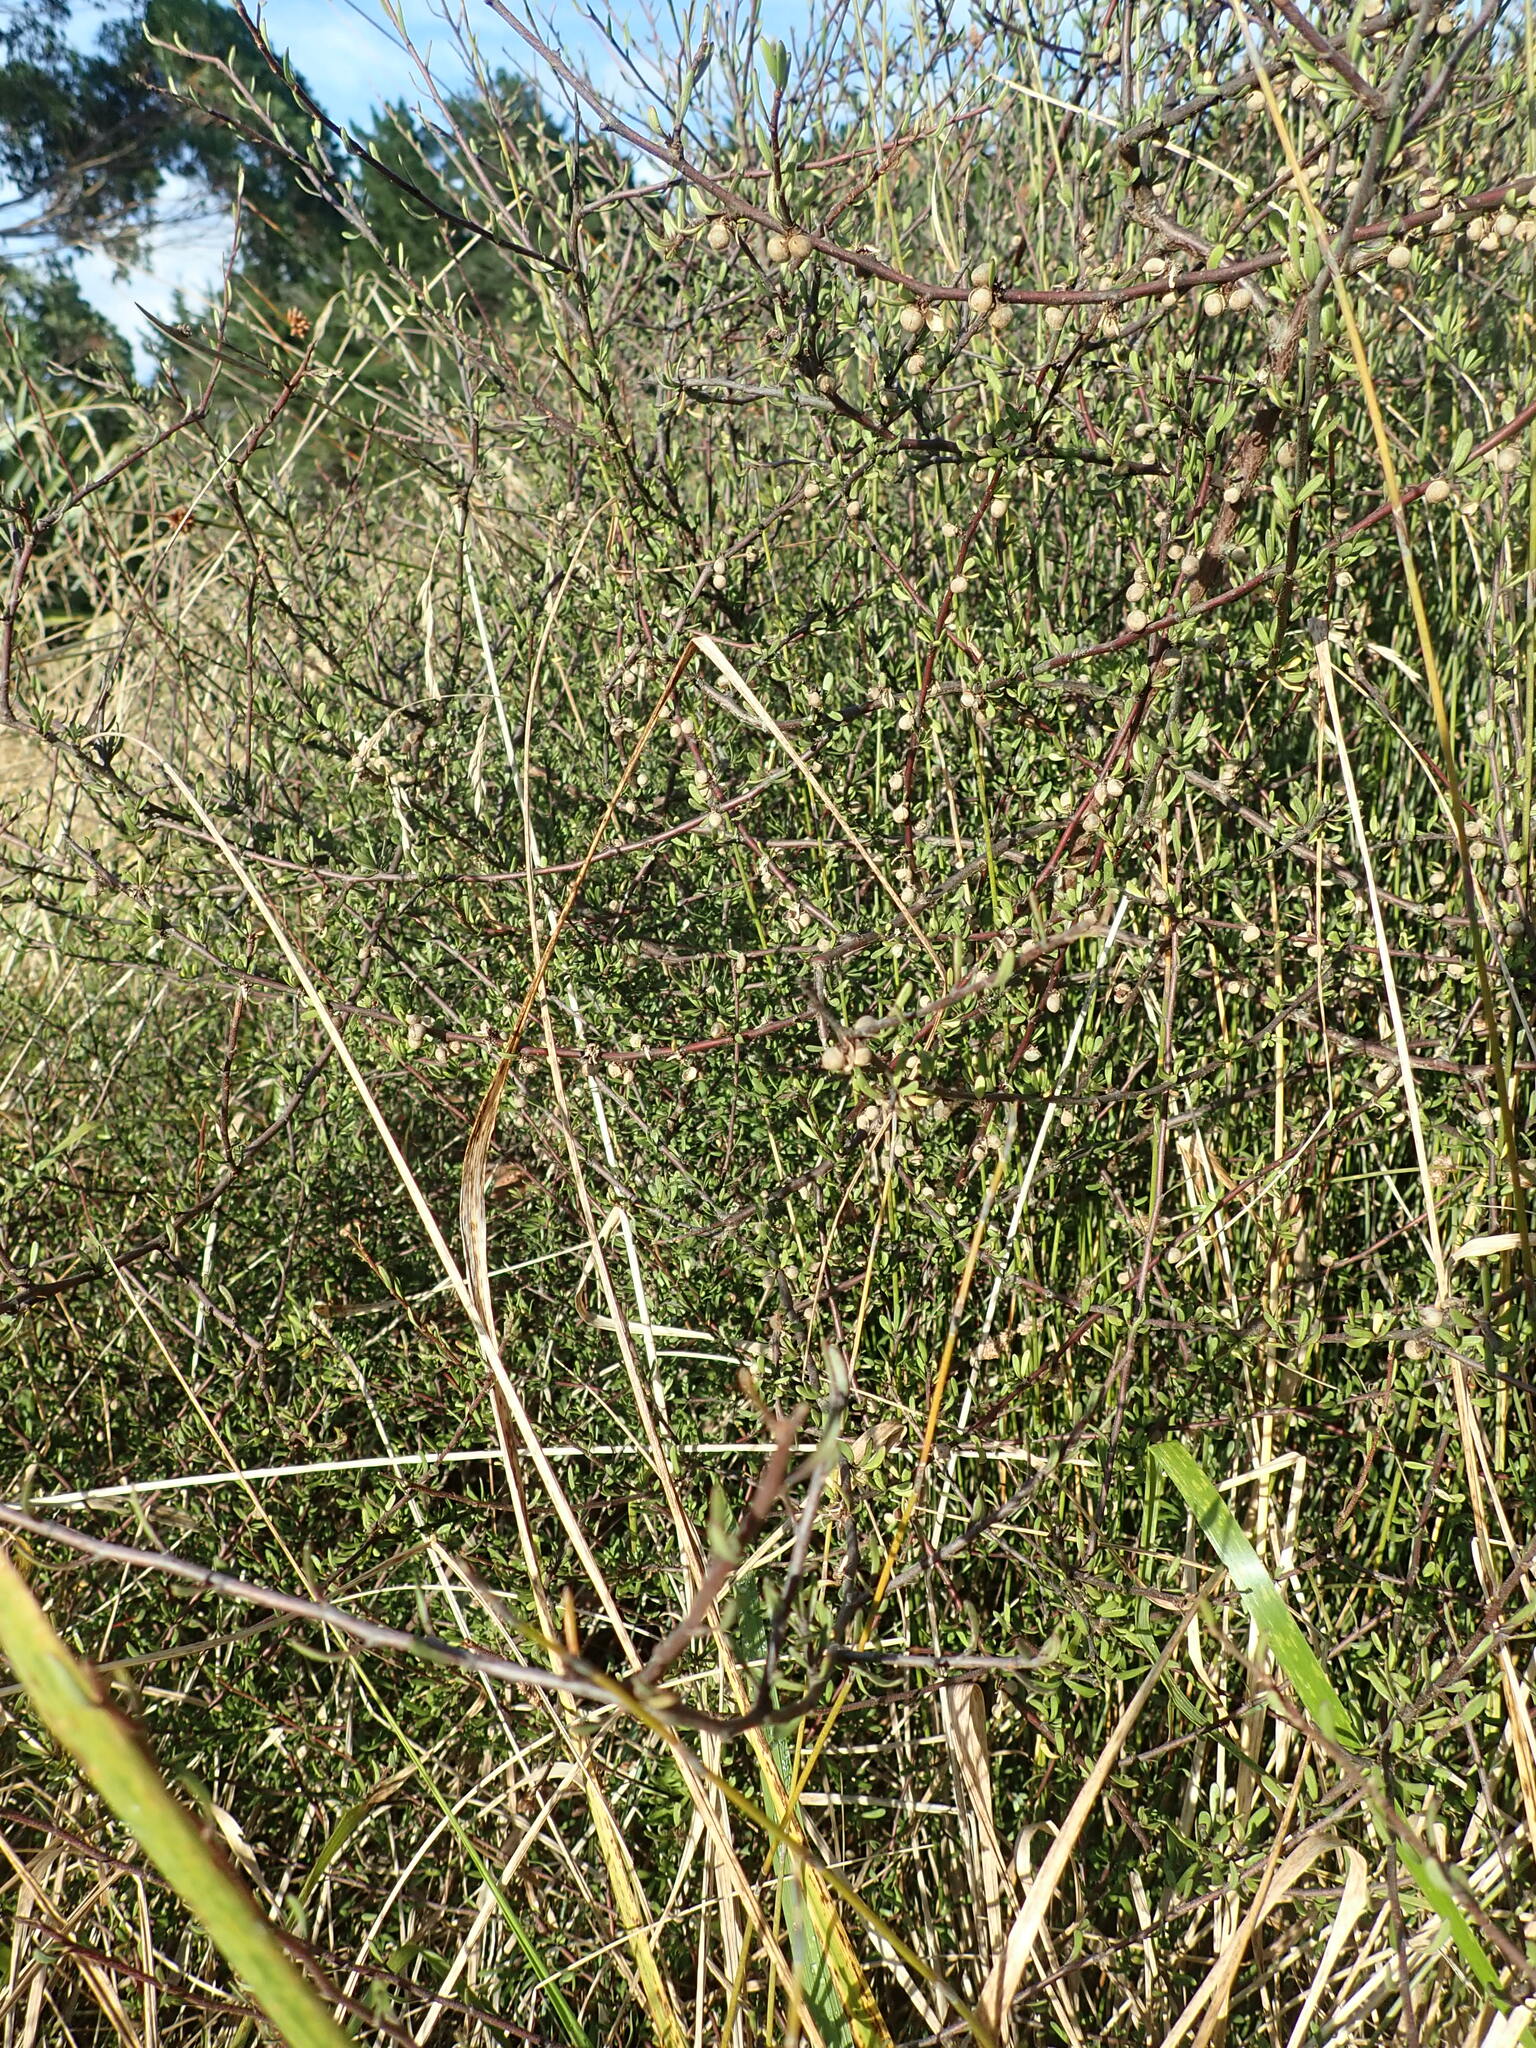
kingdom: Plantae
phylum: Tracheophyta
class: Magnoliopsida
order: Malvales
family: Malvaceae
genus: Plagianthus
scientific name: Plagianthus divaricatus
